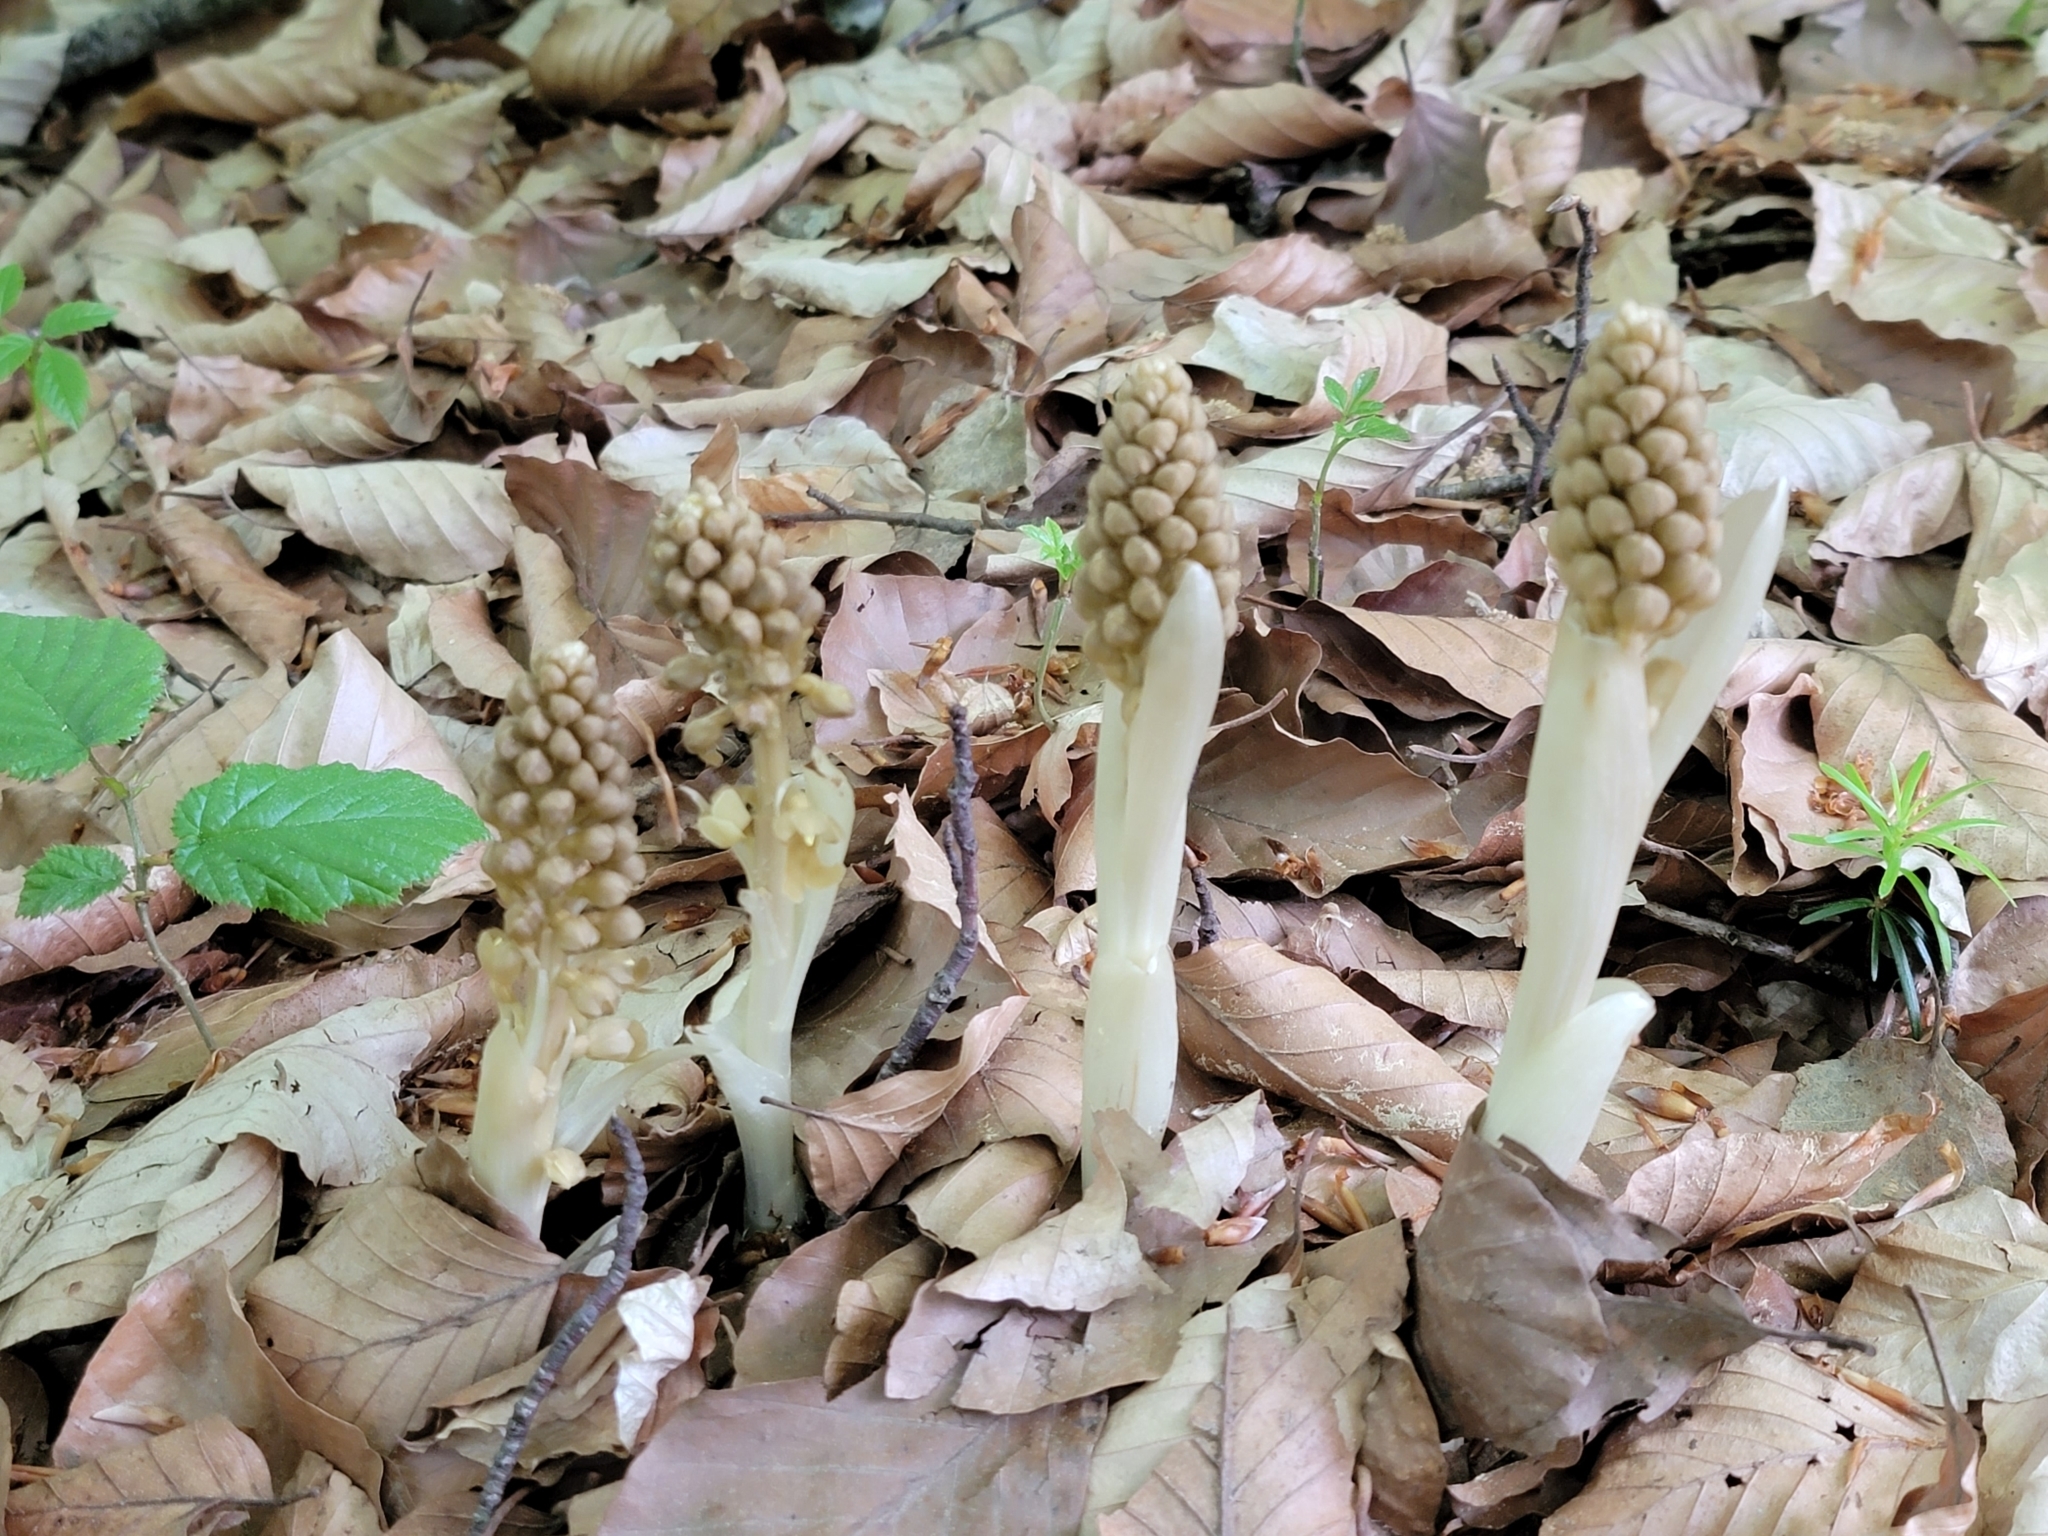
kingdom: Plantae
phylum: Tracheophyta
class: Liliopsida
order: Asparagales
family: Orchidaceae
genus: Neottia
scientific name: Neottia nidus-avis
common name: Bird's-nest orchid
